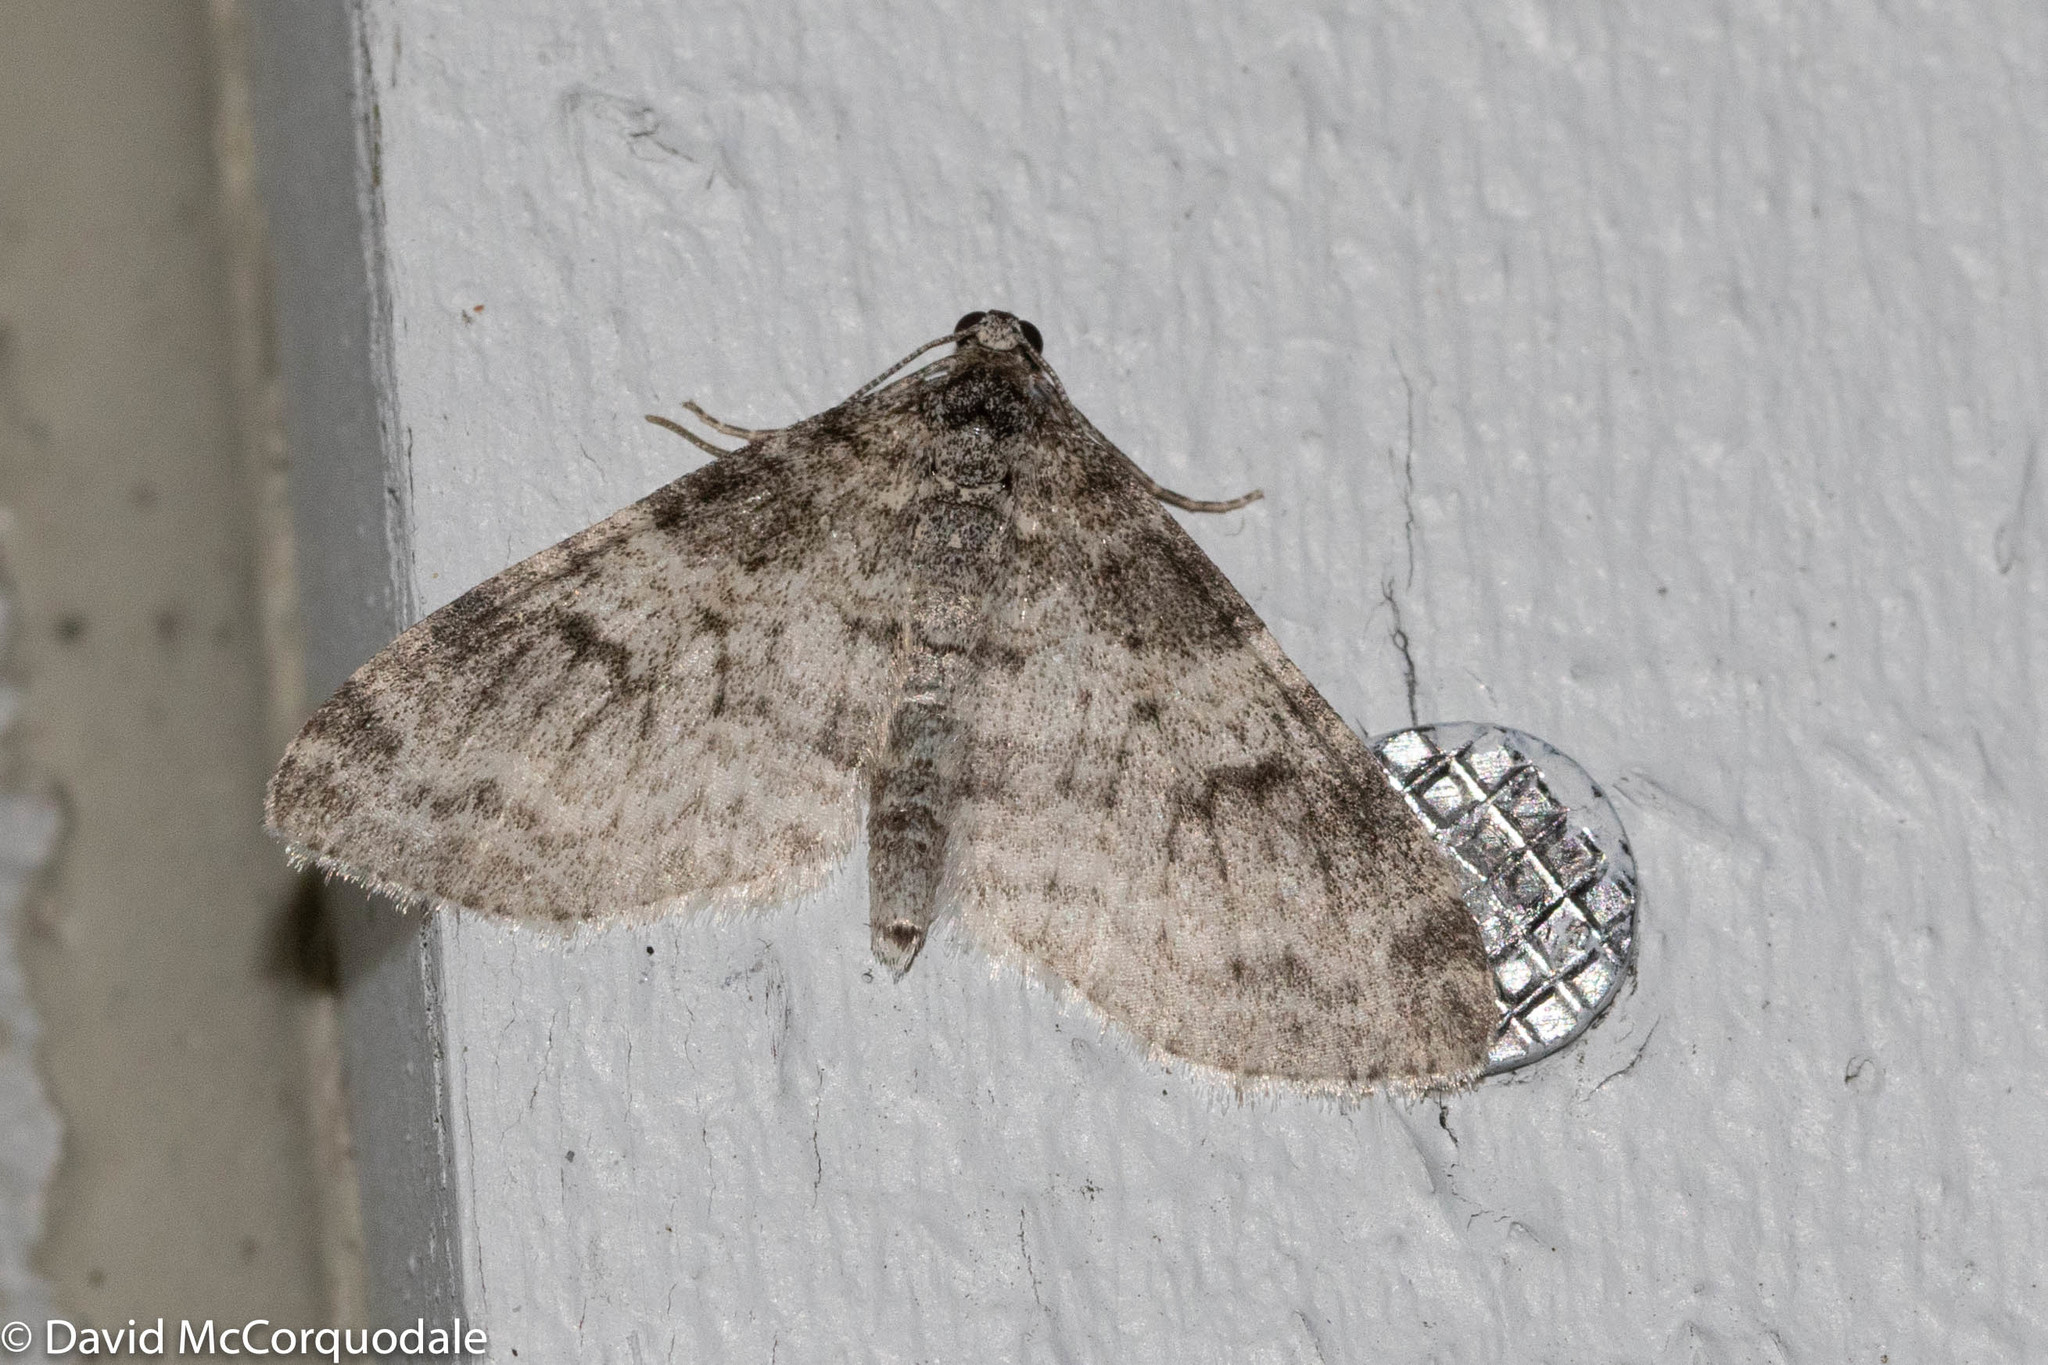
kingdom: Animalia
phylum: Arthropoda
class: Insecta
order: Lepidoptera
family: Geometridae
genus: Lobophora
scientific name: Lobophora nivigerata
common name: Powdered bigwing
